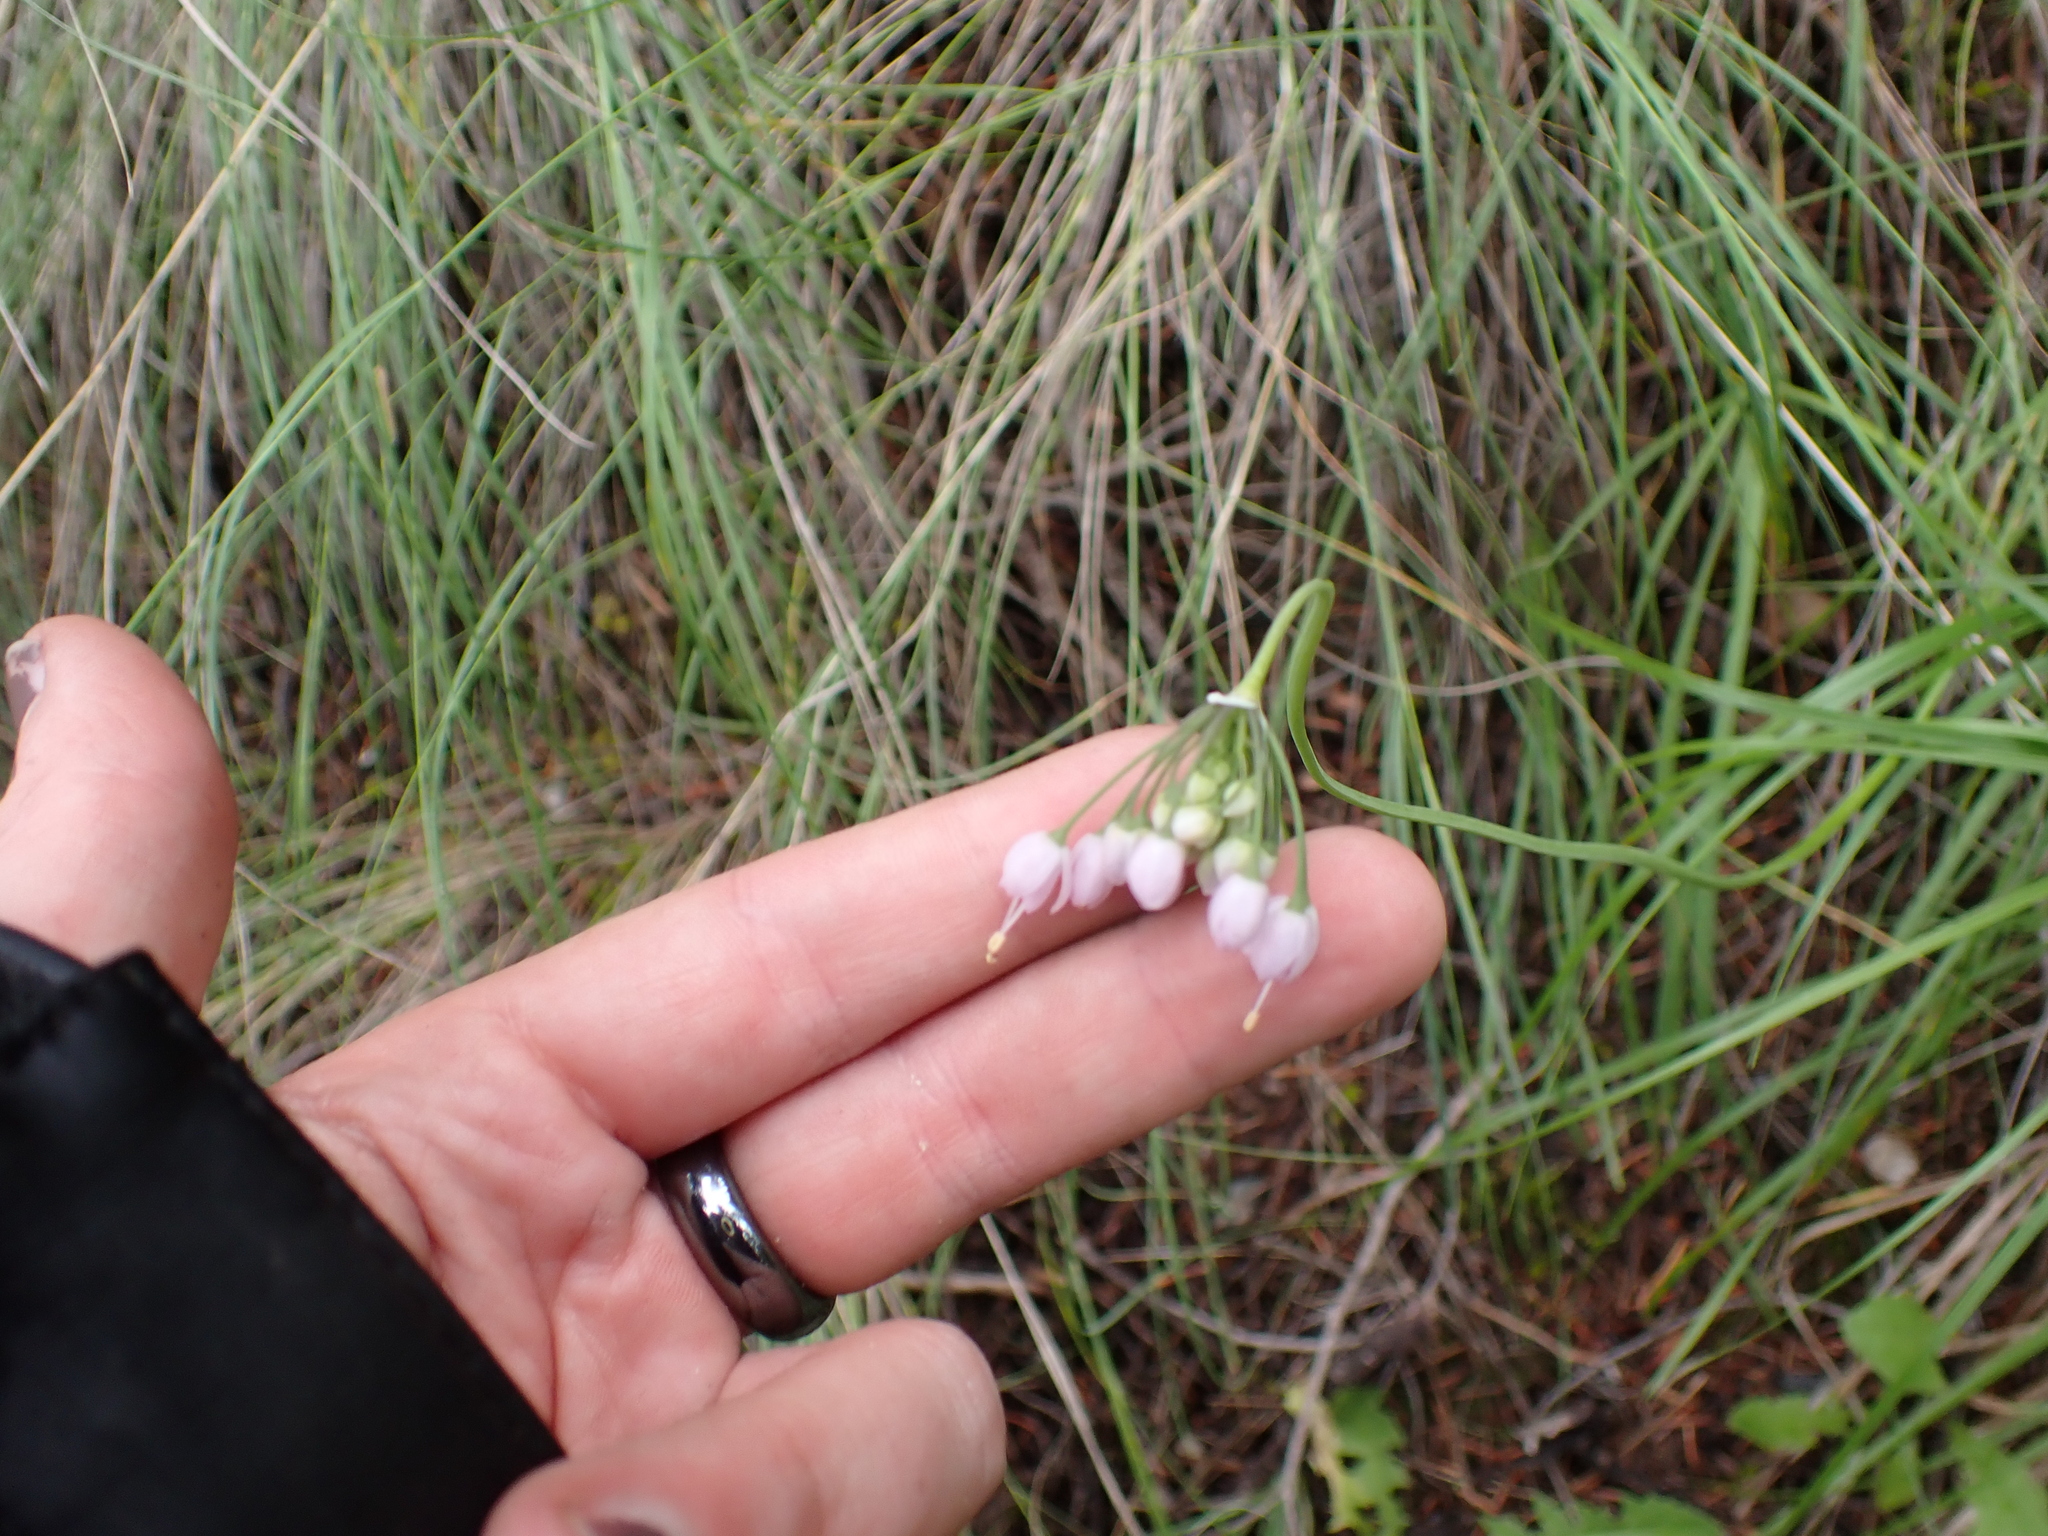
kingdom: Plantae
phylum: Tracheophyta
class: Liliopsida
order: Asparagales
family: Amaryllidaceae
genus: Allium
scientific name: Allium cernuum
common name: Nodding onion
